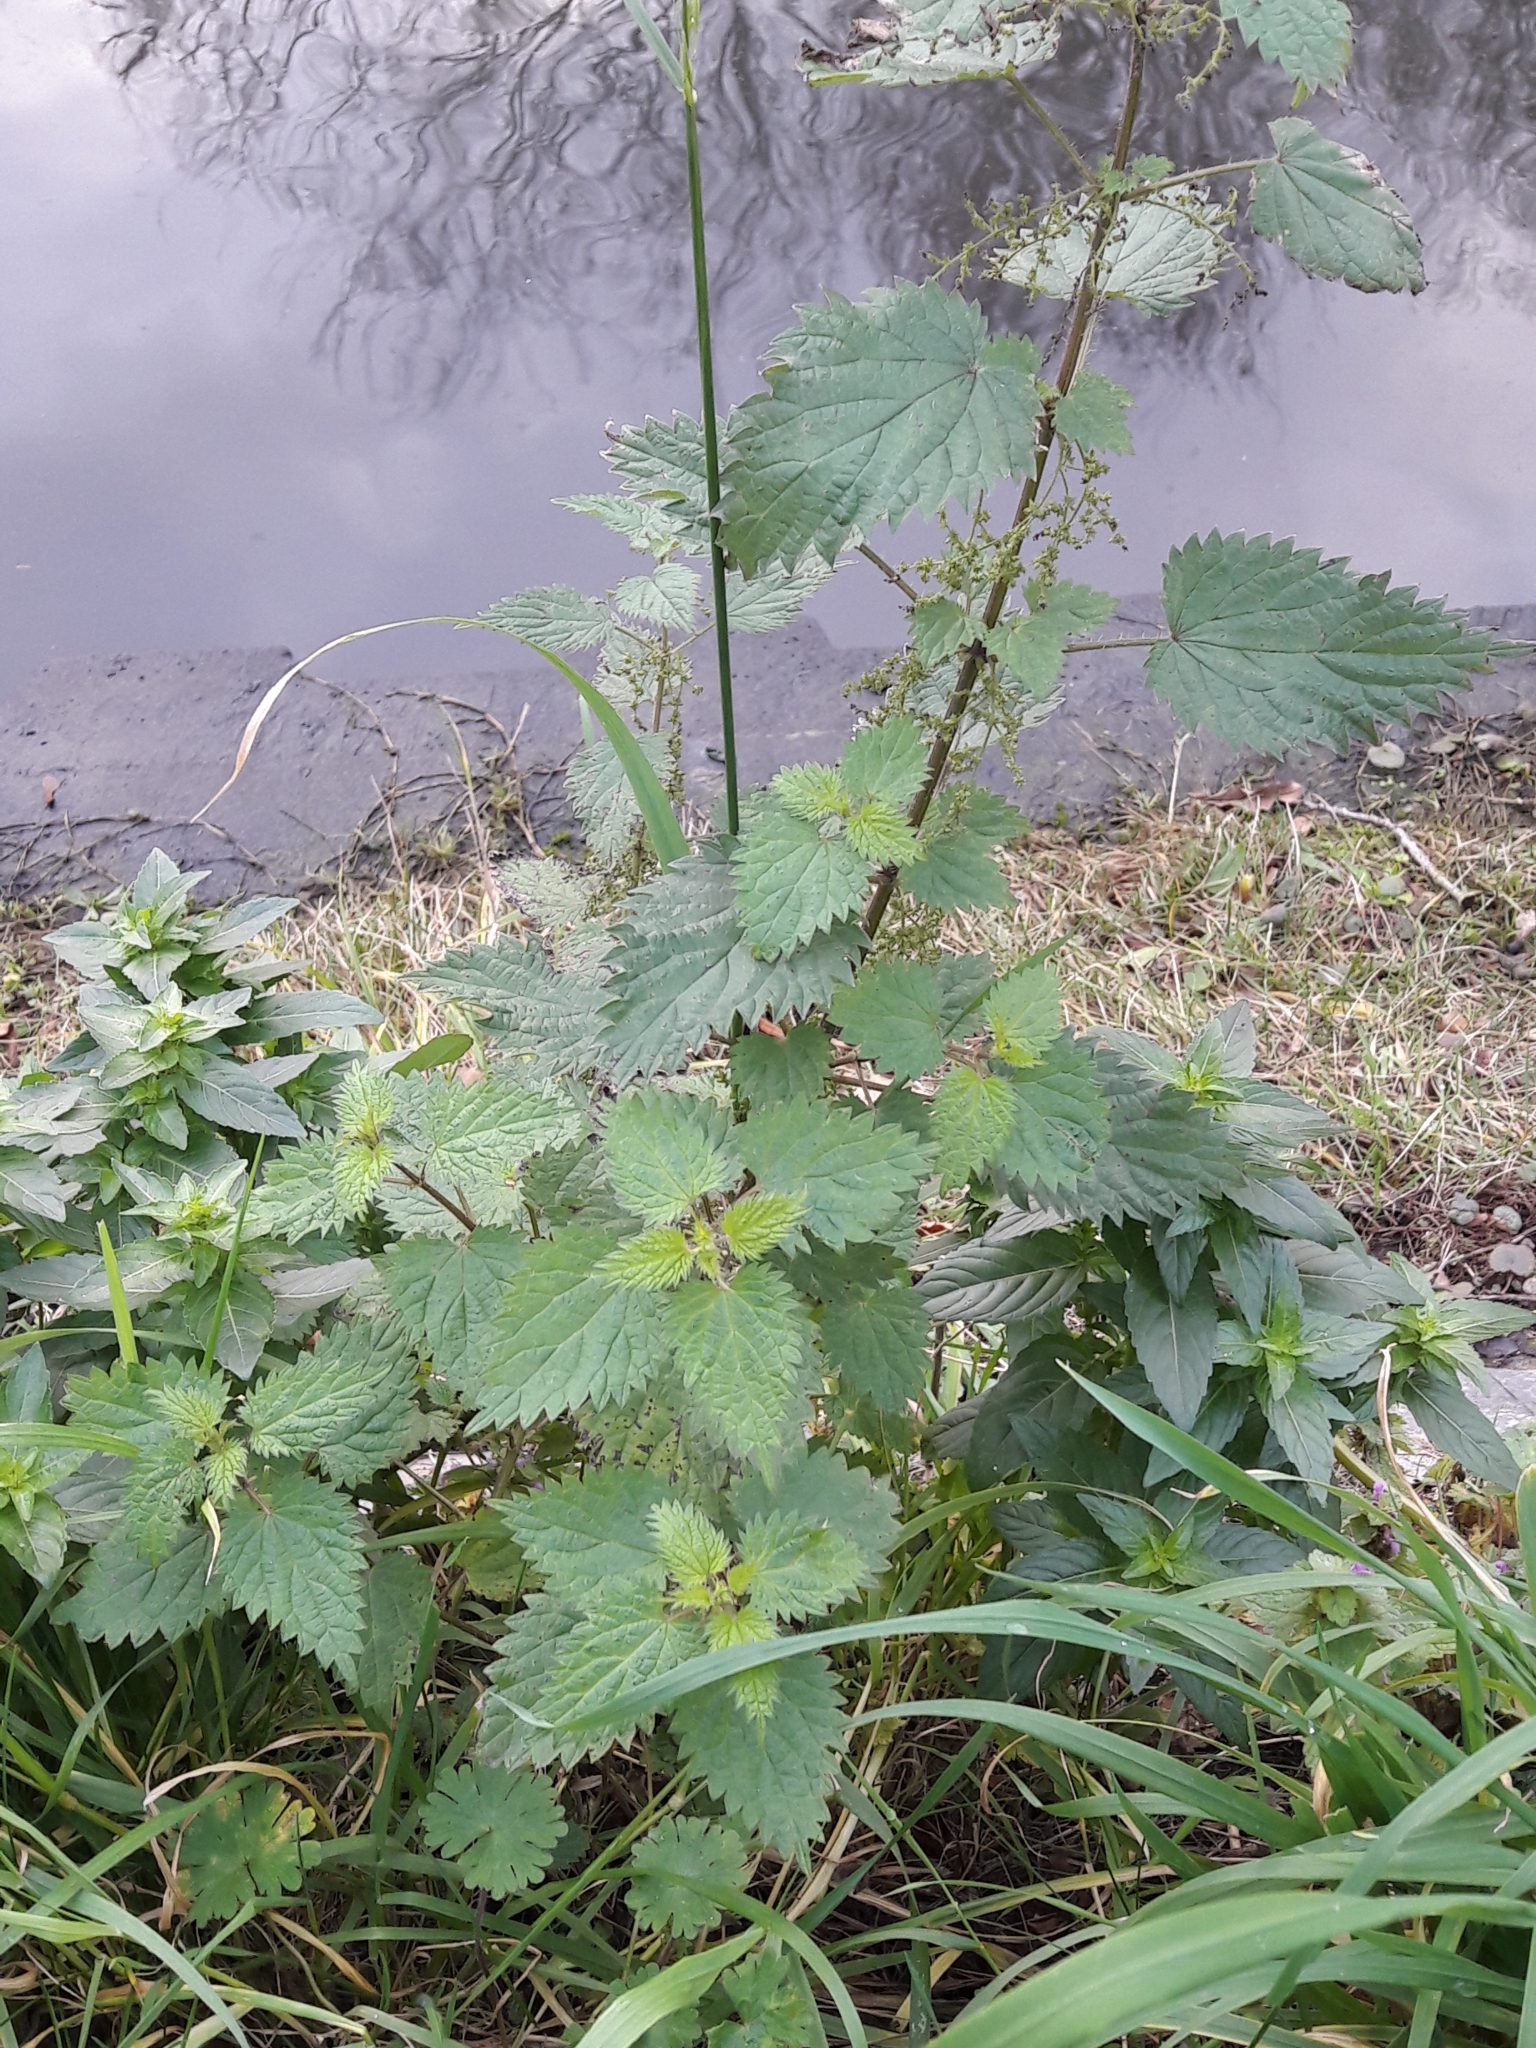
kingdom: Plantae
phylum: Tracheophyta
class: Magnoliopsida
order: Rosales
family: Urticaceae
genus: Urtica
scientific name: Urtica dioica
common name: Common nettle
